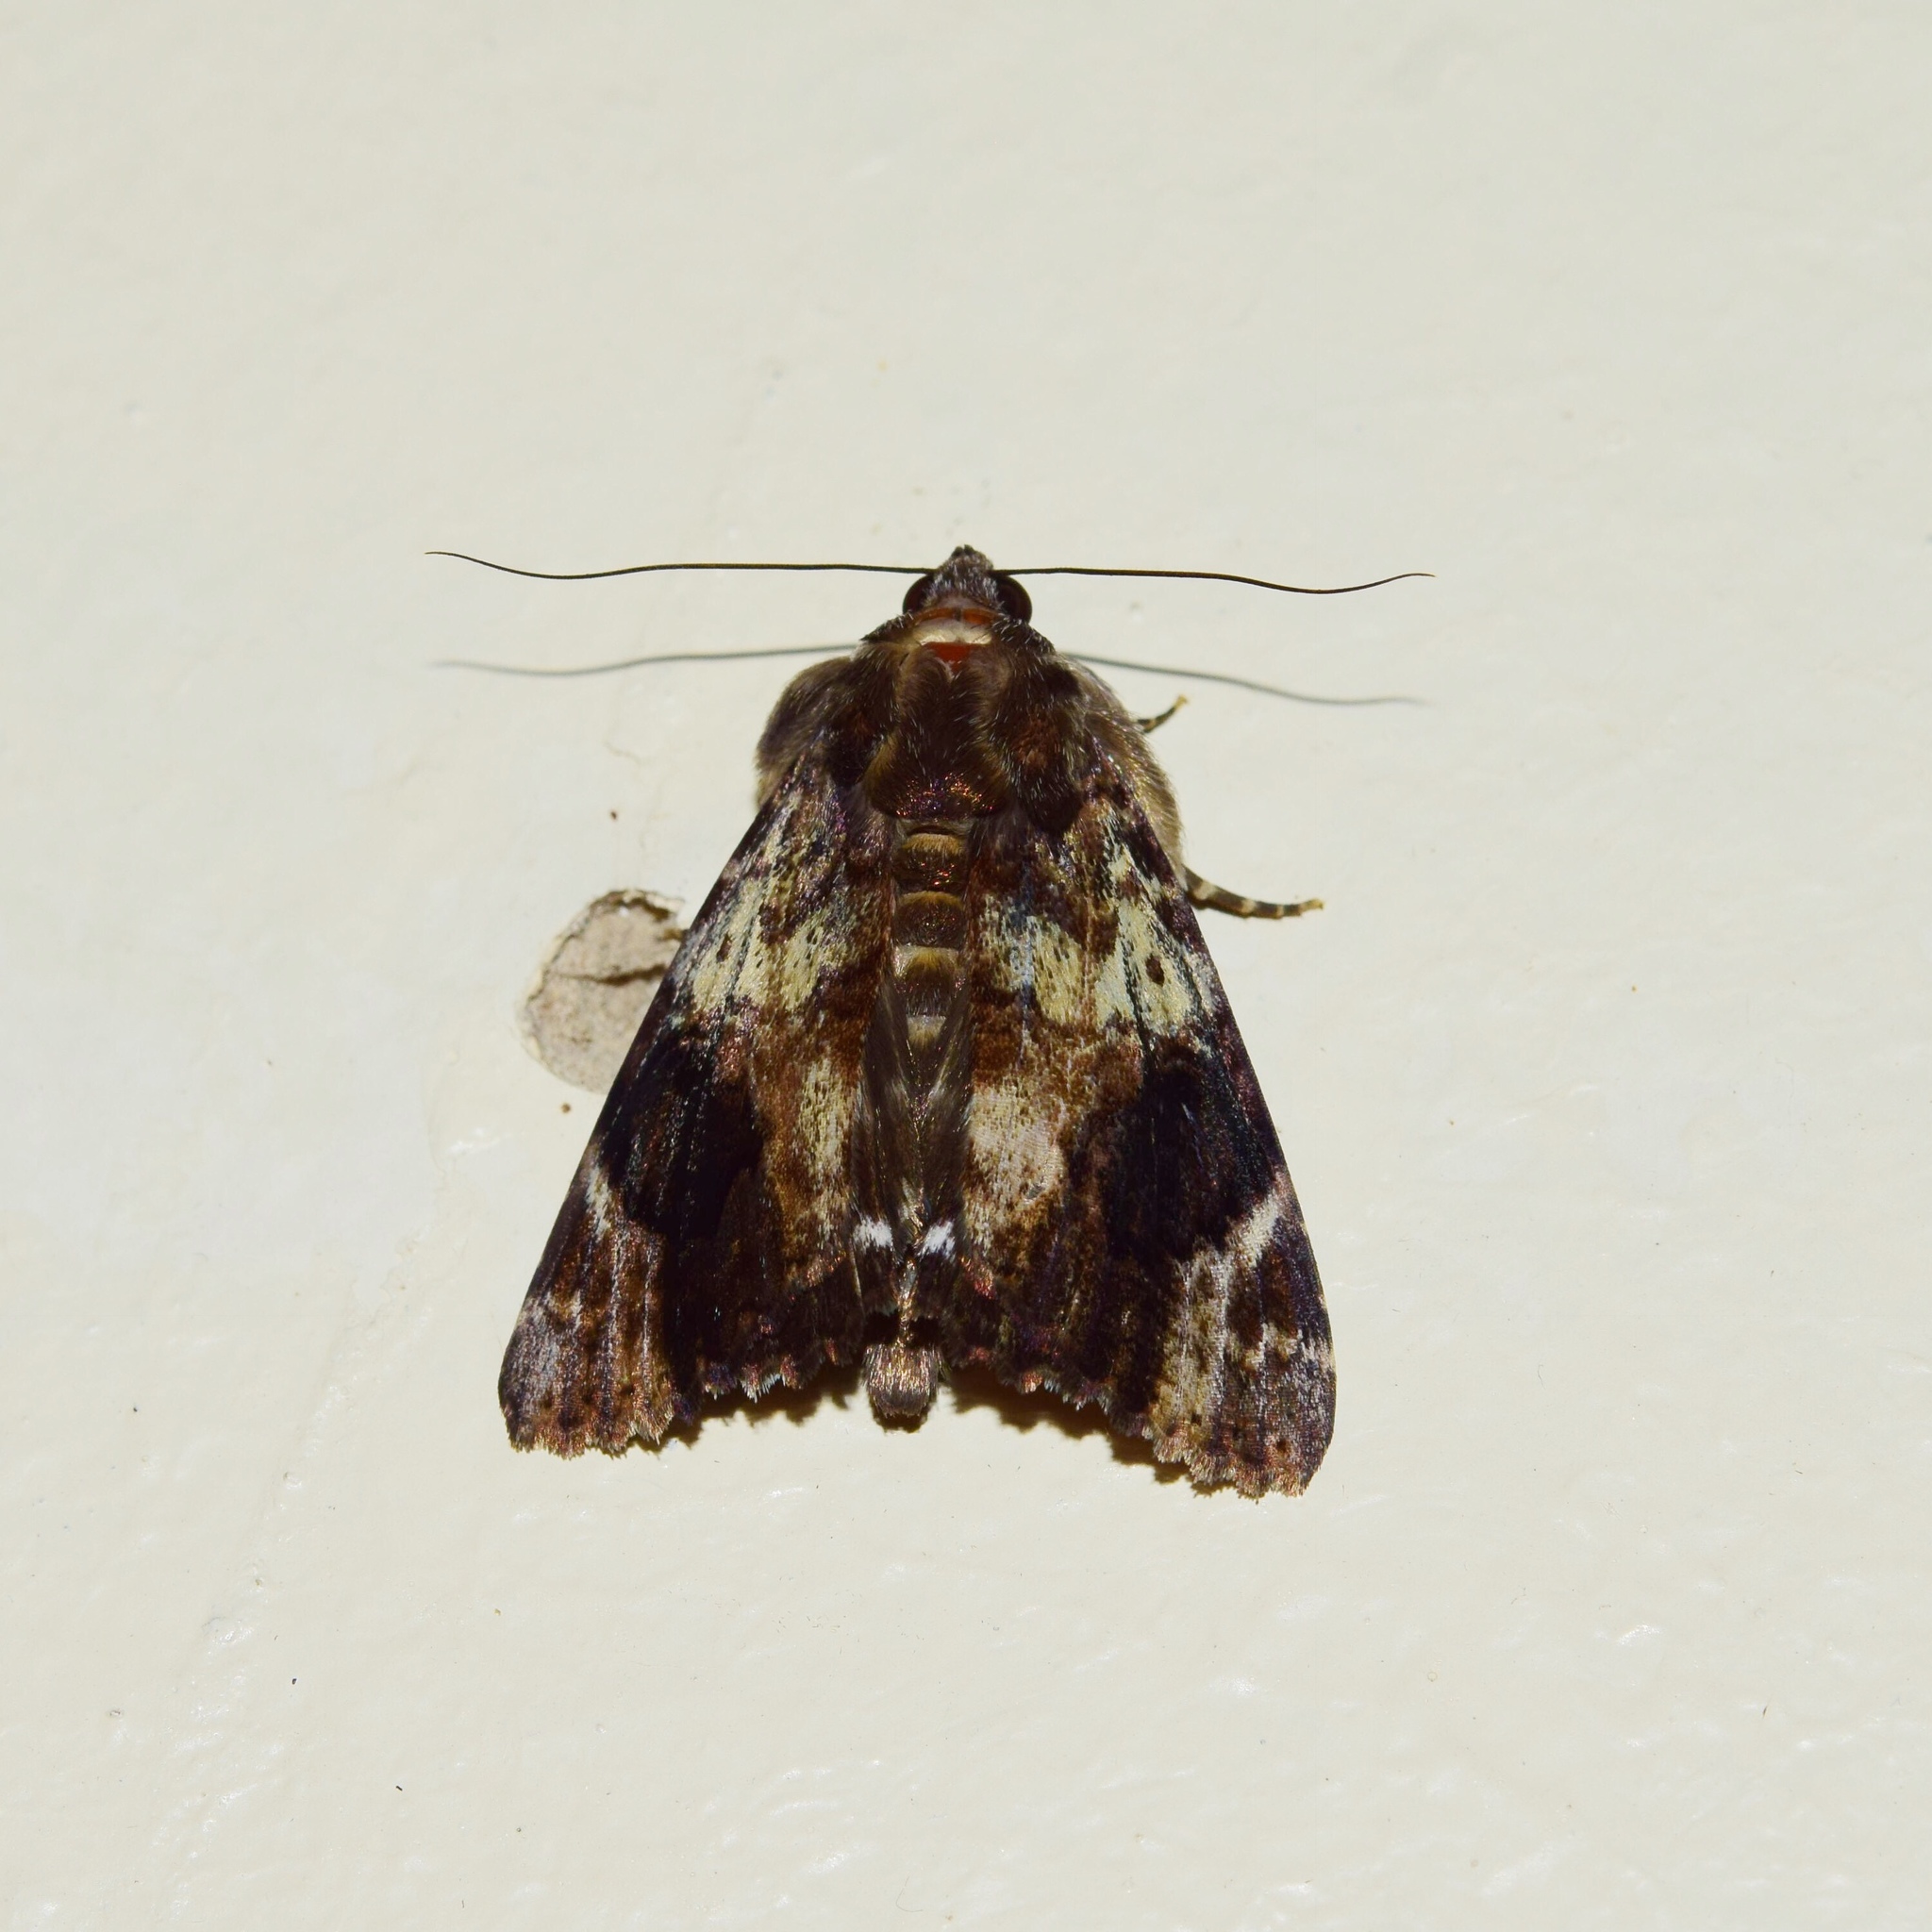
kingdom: Animalia
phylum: Arthropoda
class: Insecta
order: Lepidoptera
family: Erebidae
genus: Catephia
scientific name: Catephia natalensis
